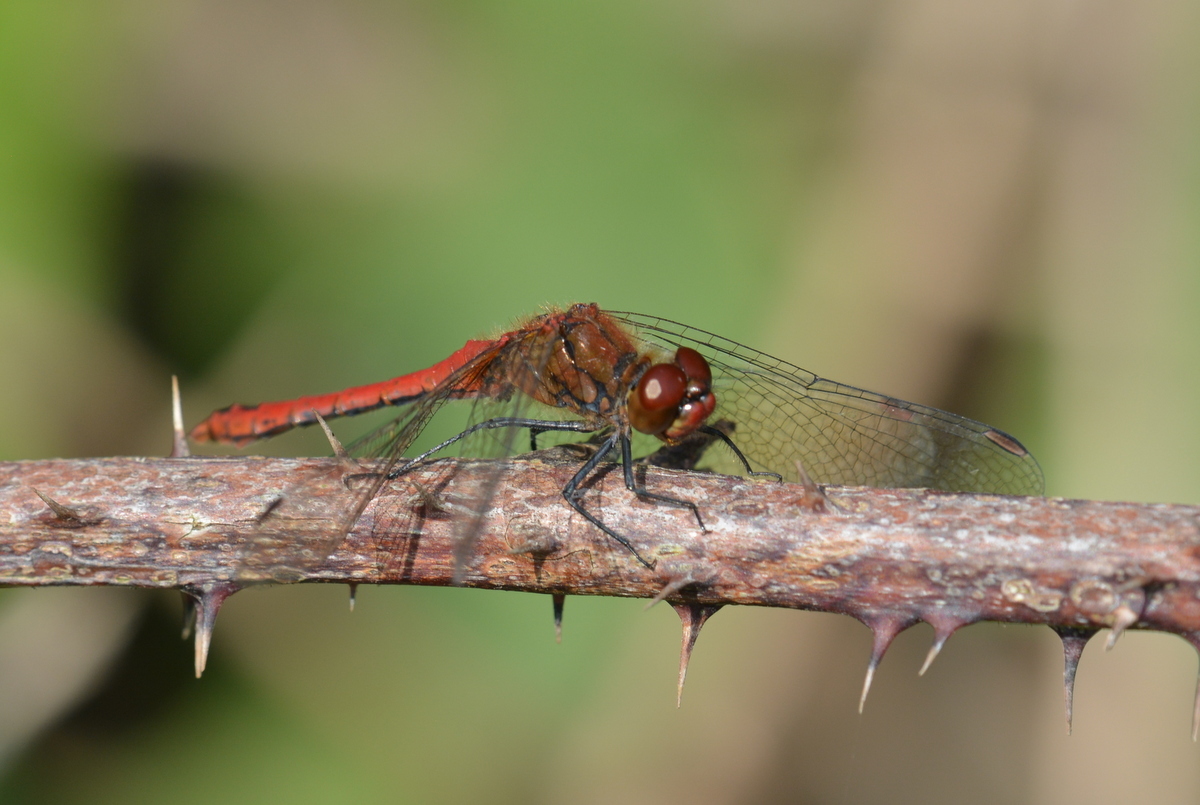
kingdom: Animalia
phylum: Arthropoda
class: Insecta
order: Odonata
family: Libellulidae
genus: Sympetrum
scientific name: Sympetrum sanguineum
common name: Ruddy darter
